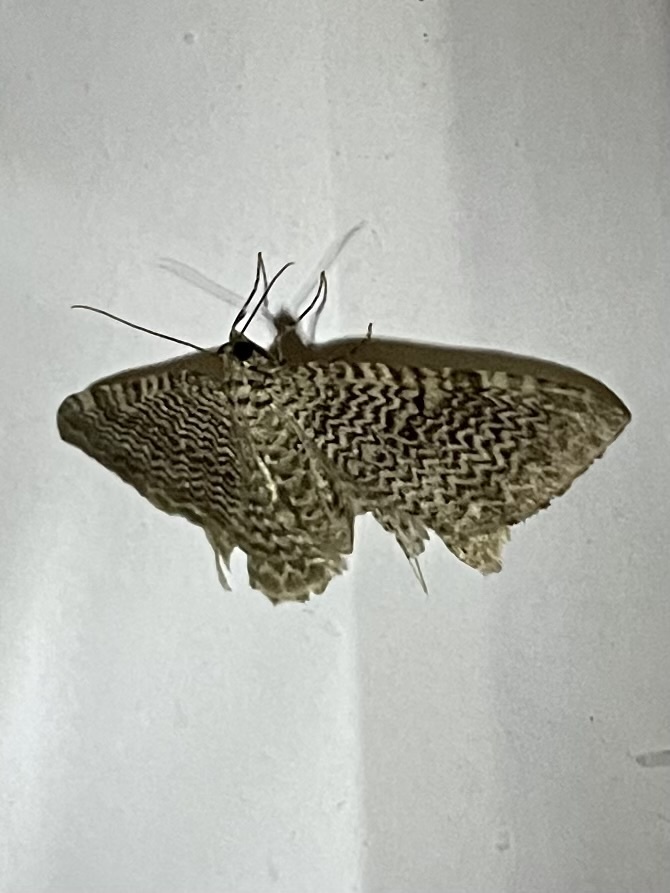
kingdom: Animalia
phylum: Arthropoda
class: Insecta
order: Lepidoptera
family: Geometridae
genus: Rheumaptera
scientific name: Rheumaptera prunivorata
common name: Cherry scallop shell moth
